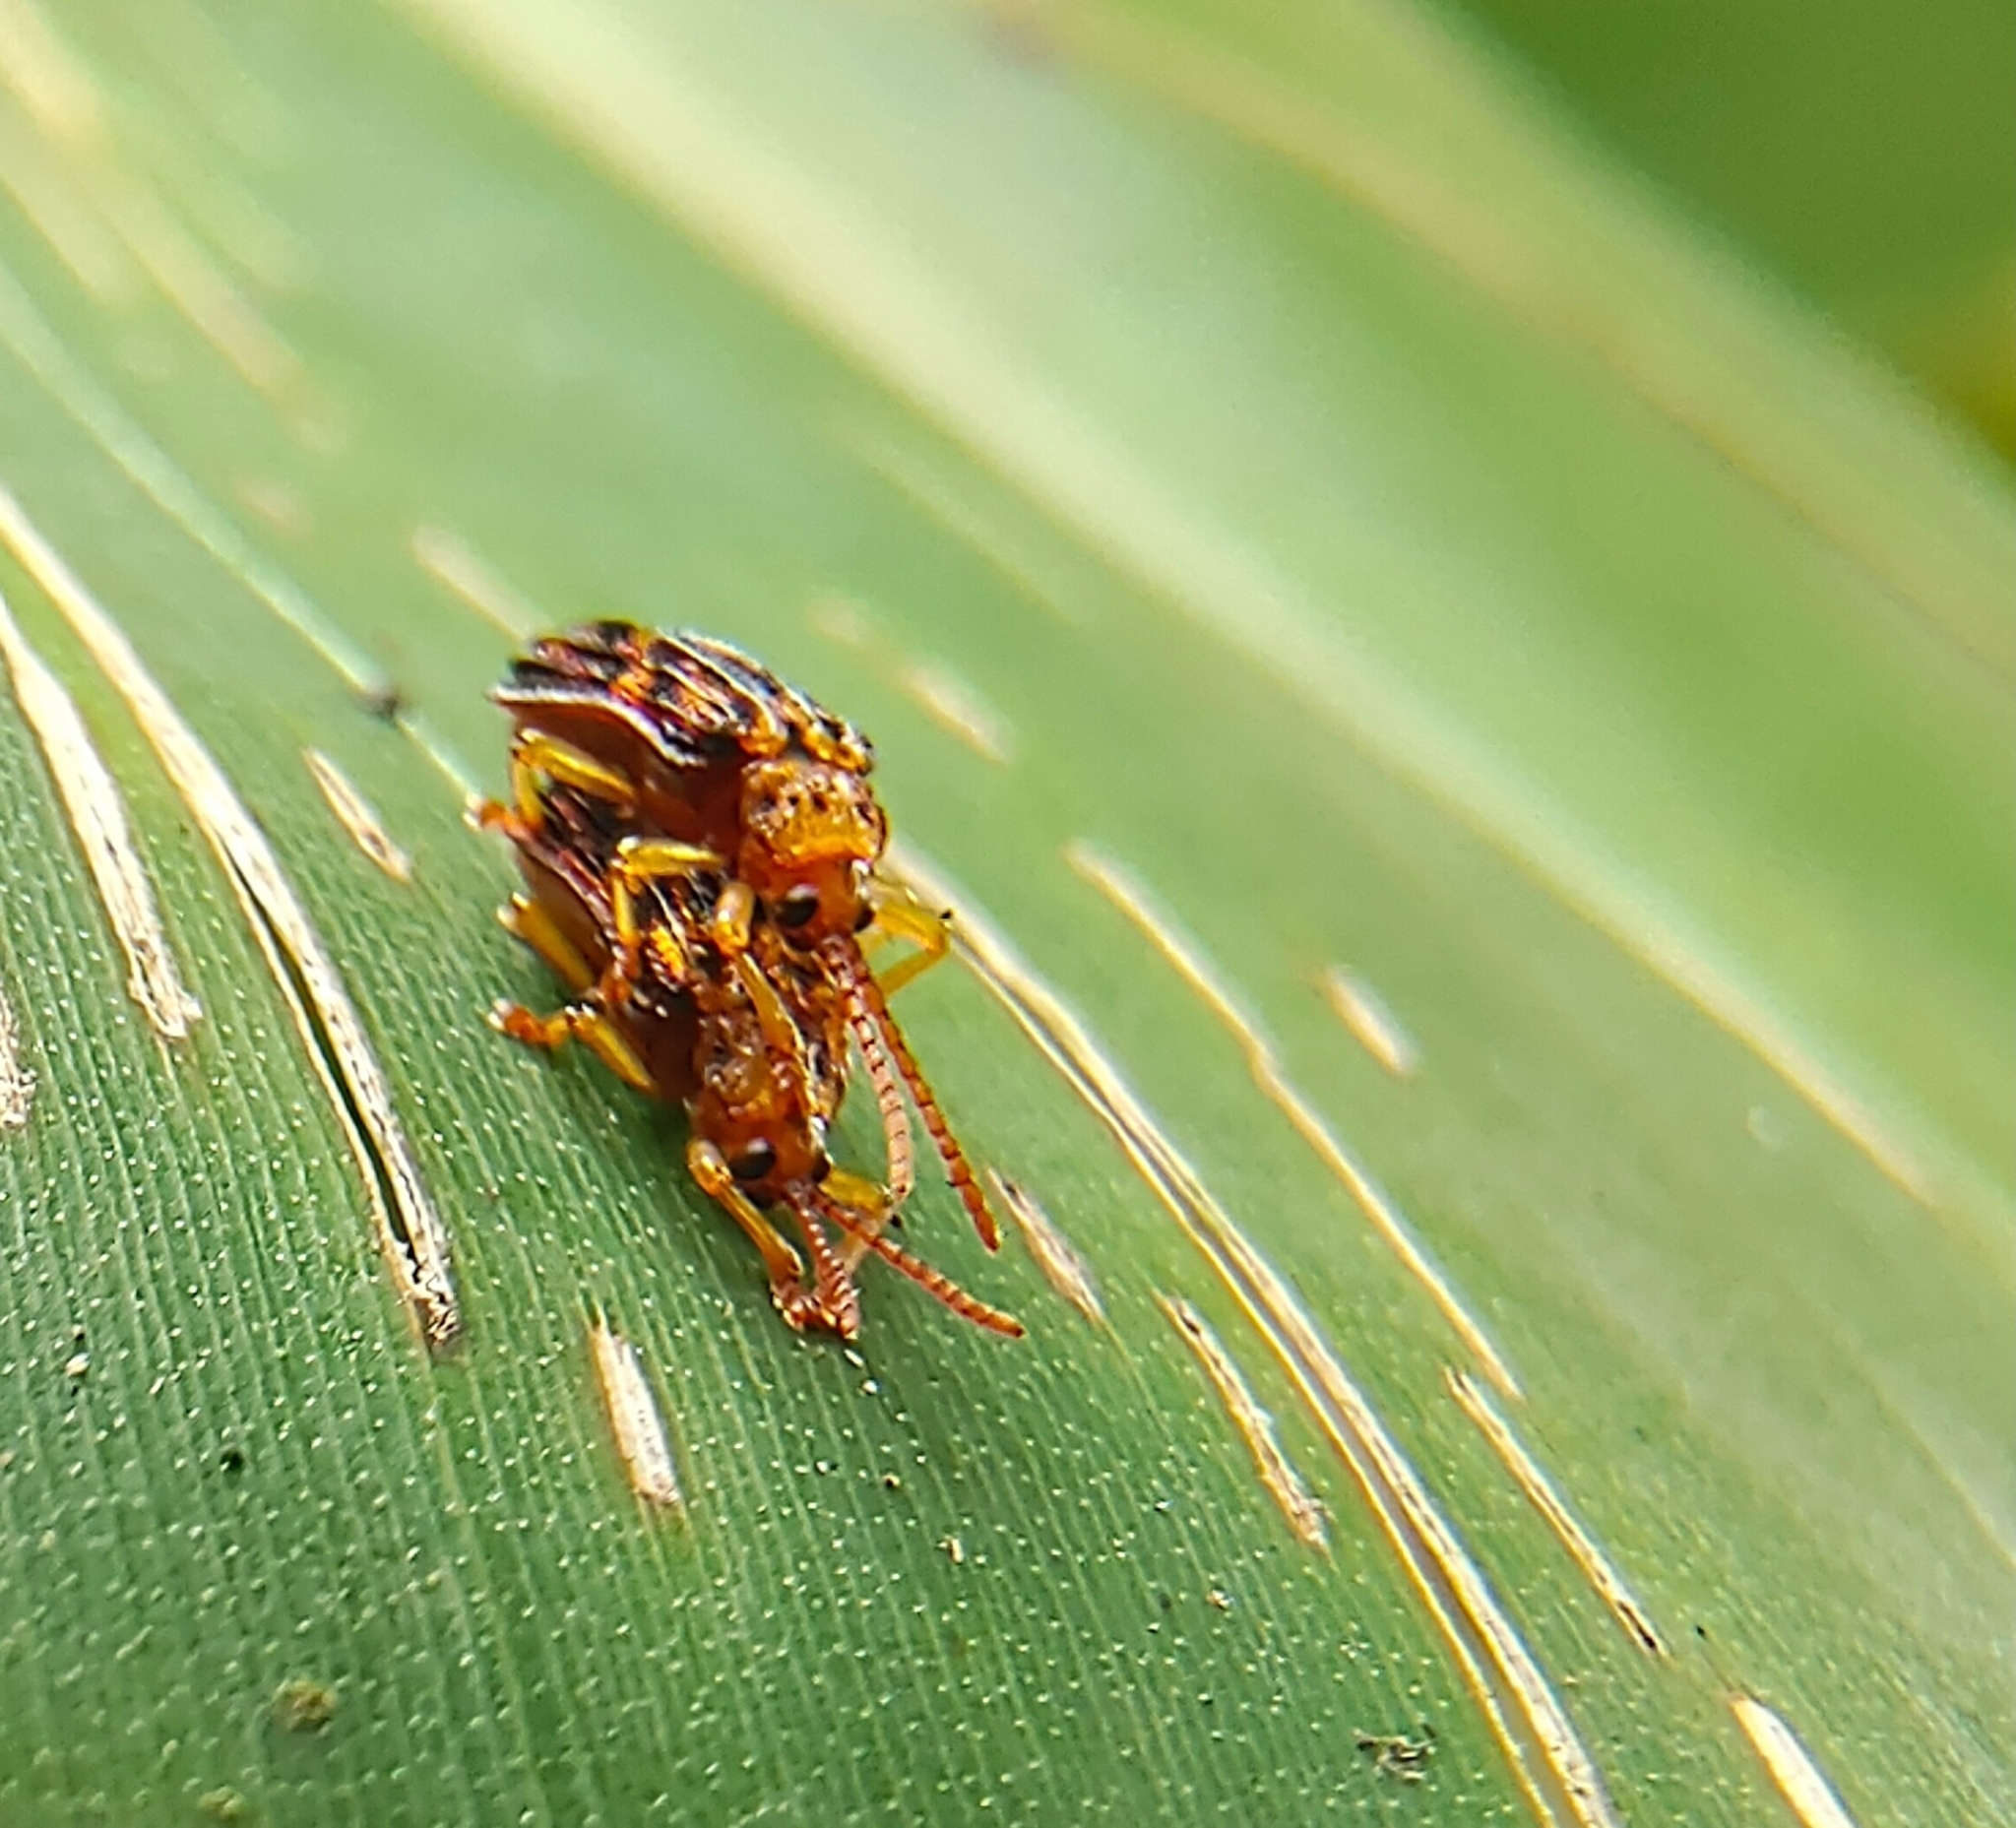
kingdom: Animalia
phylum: Arthropoda
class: Insecta
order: Coleoptera
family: Chrysomelidae
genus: Gonophora
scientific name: Gonophora pulchella
